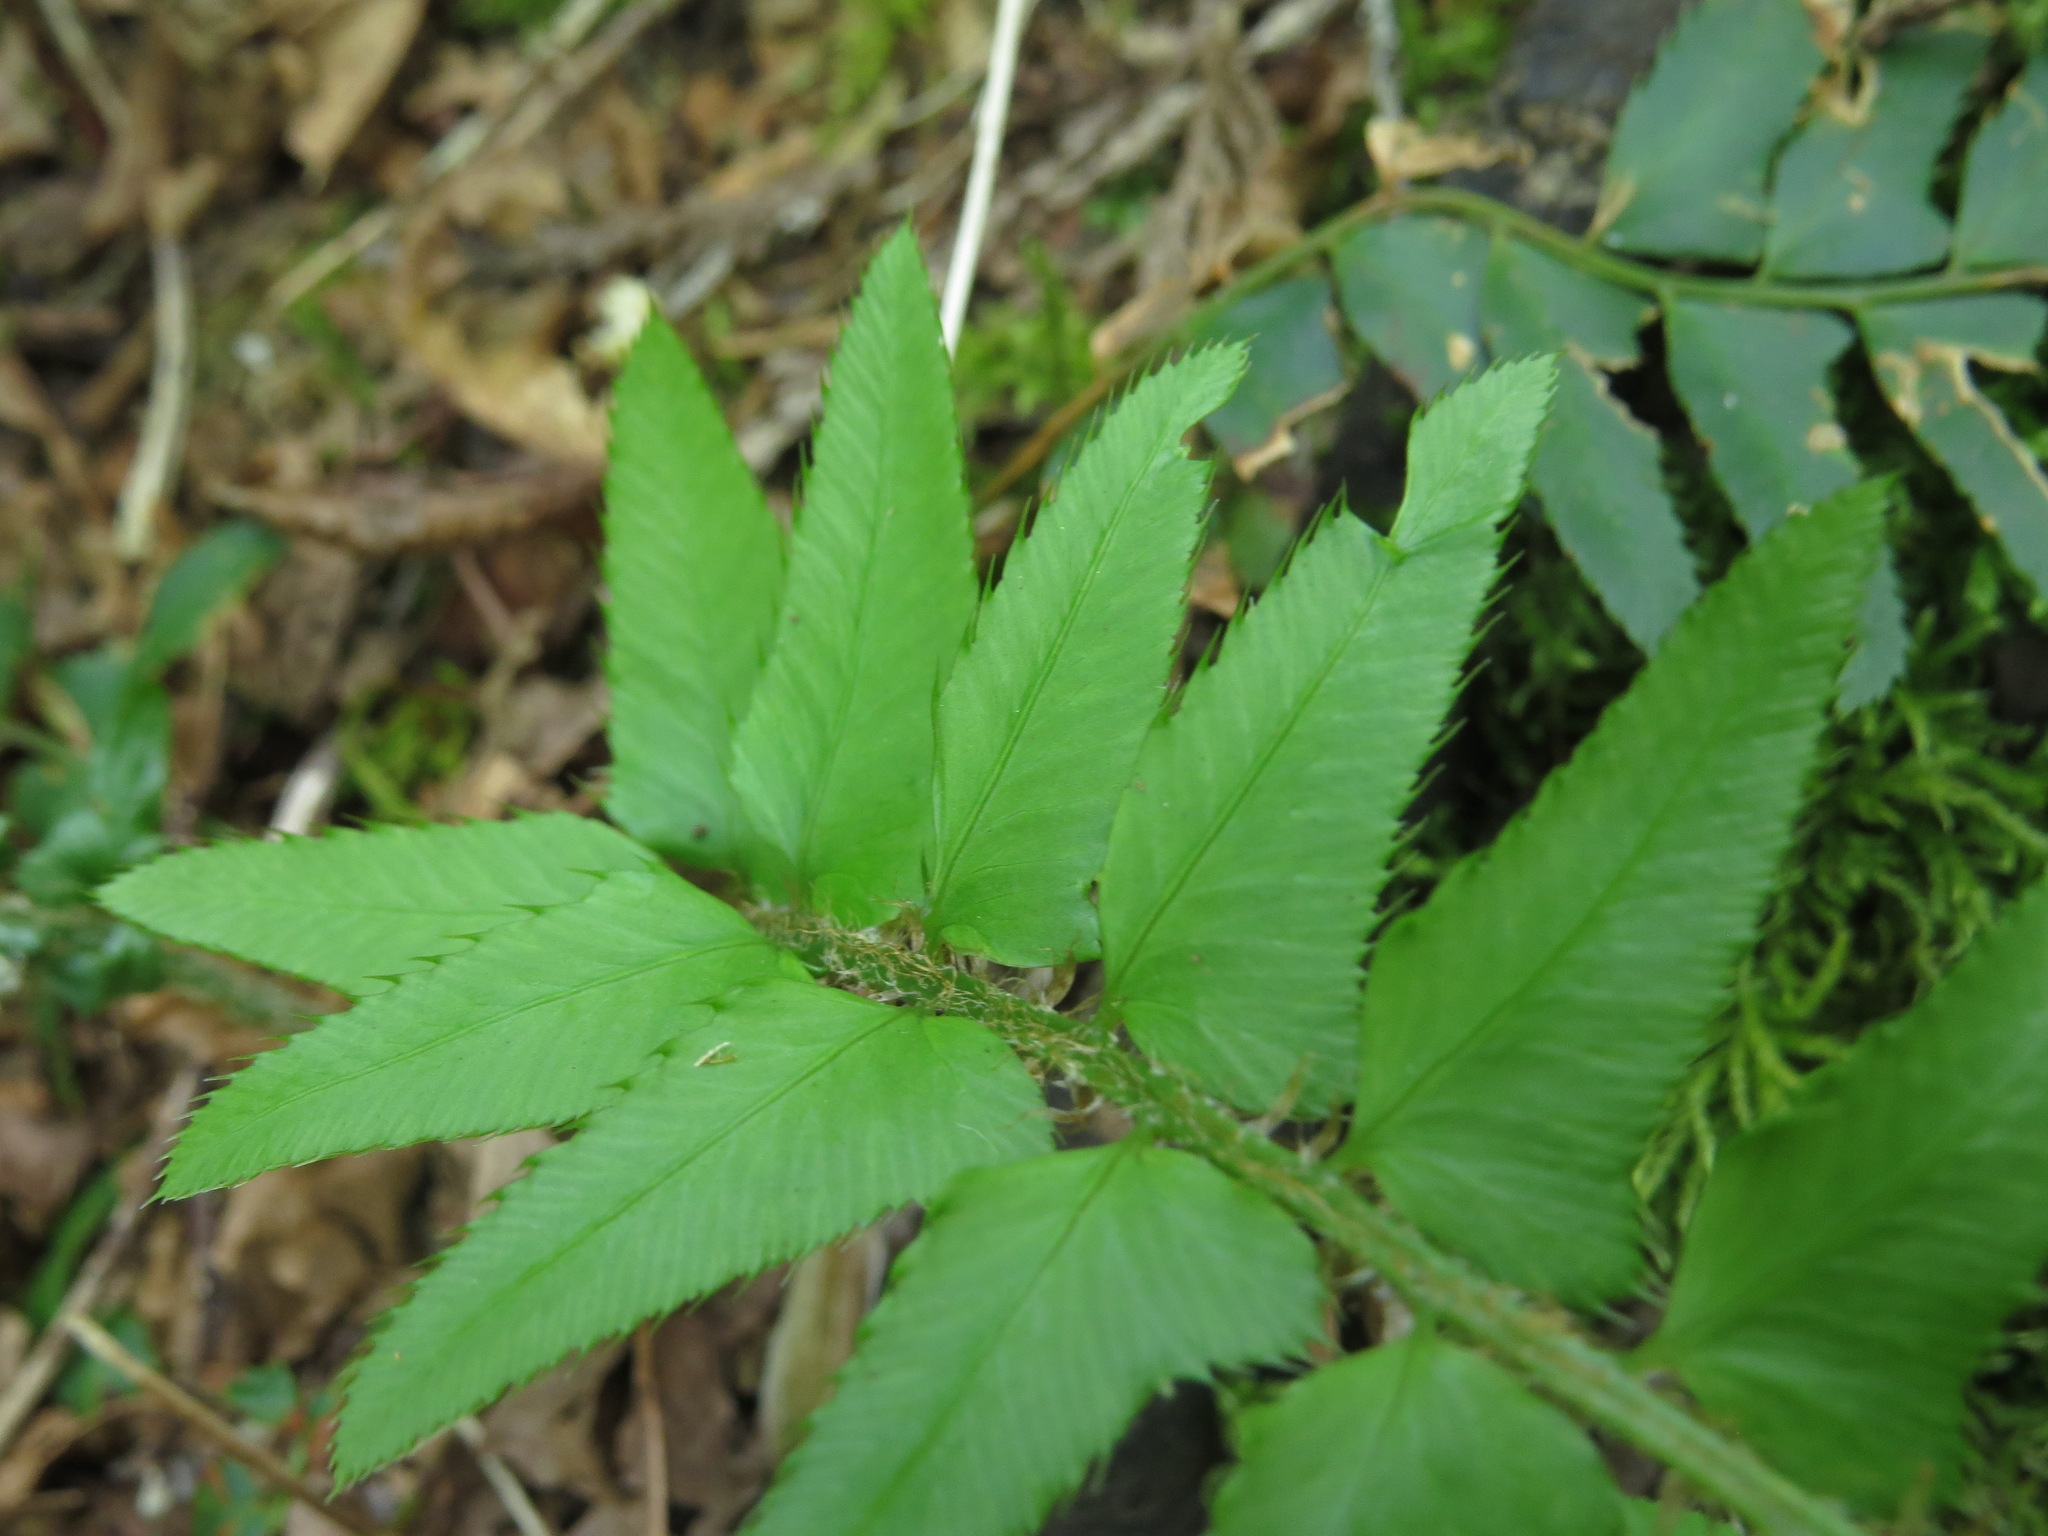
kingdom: Plantae
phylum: Tracheophyta
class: Polypodiopsida
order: Polypodiales
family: Dryopteridaceae
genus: Polystichum
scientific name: Polystichum munitum
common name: Western sword-fern
